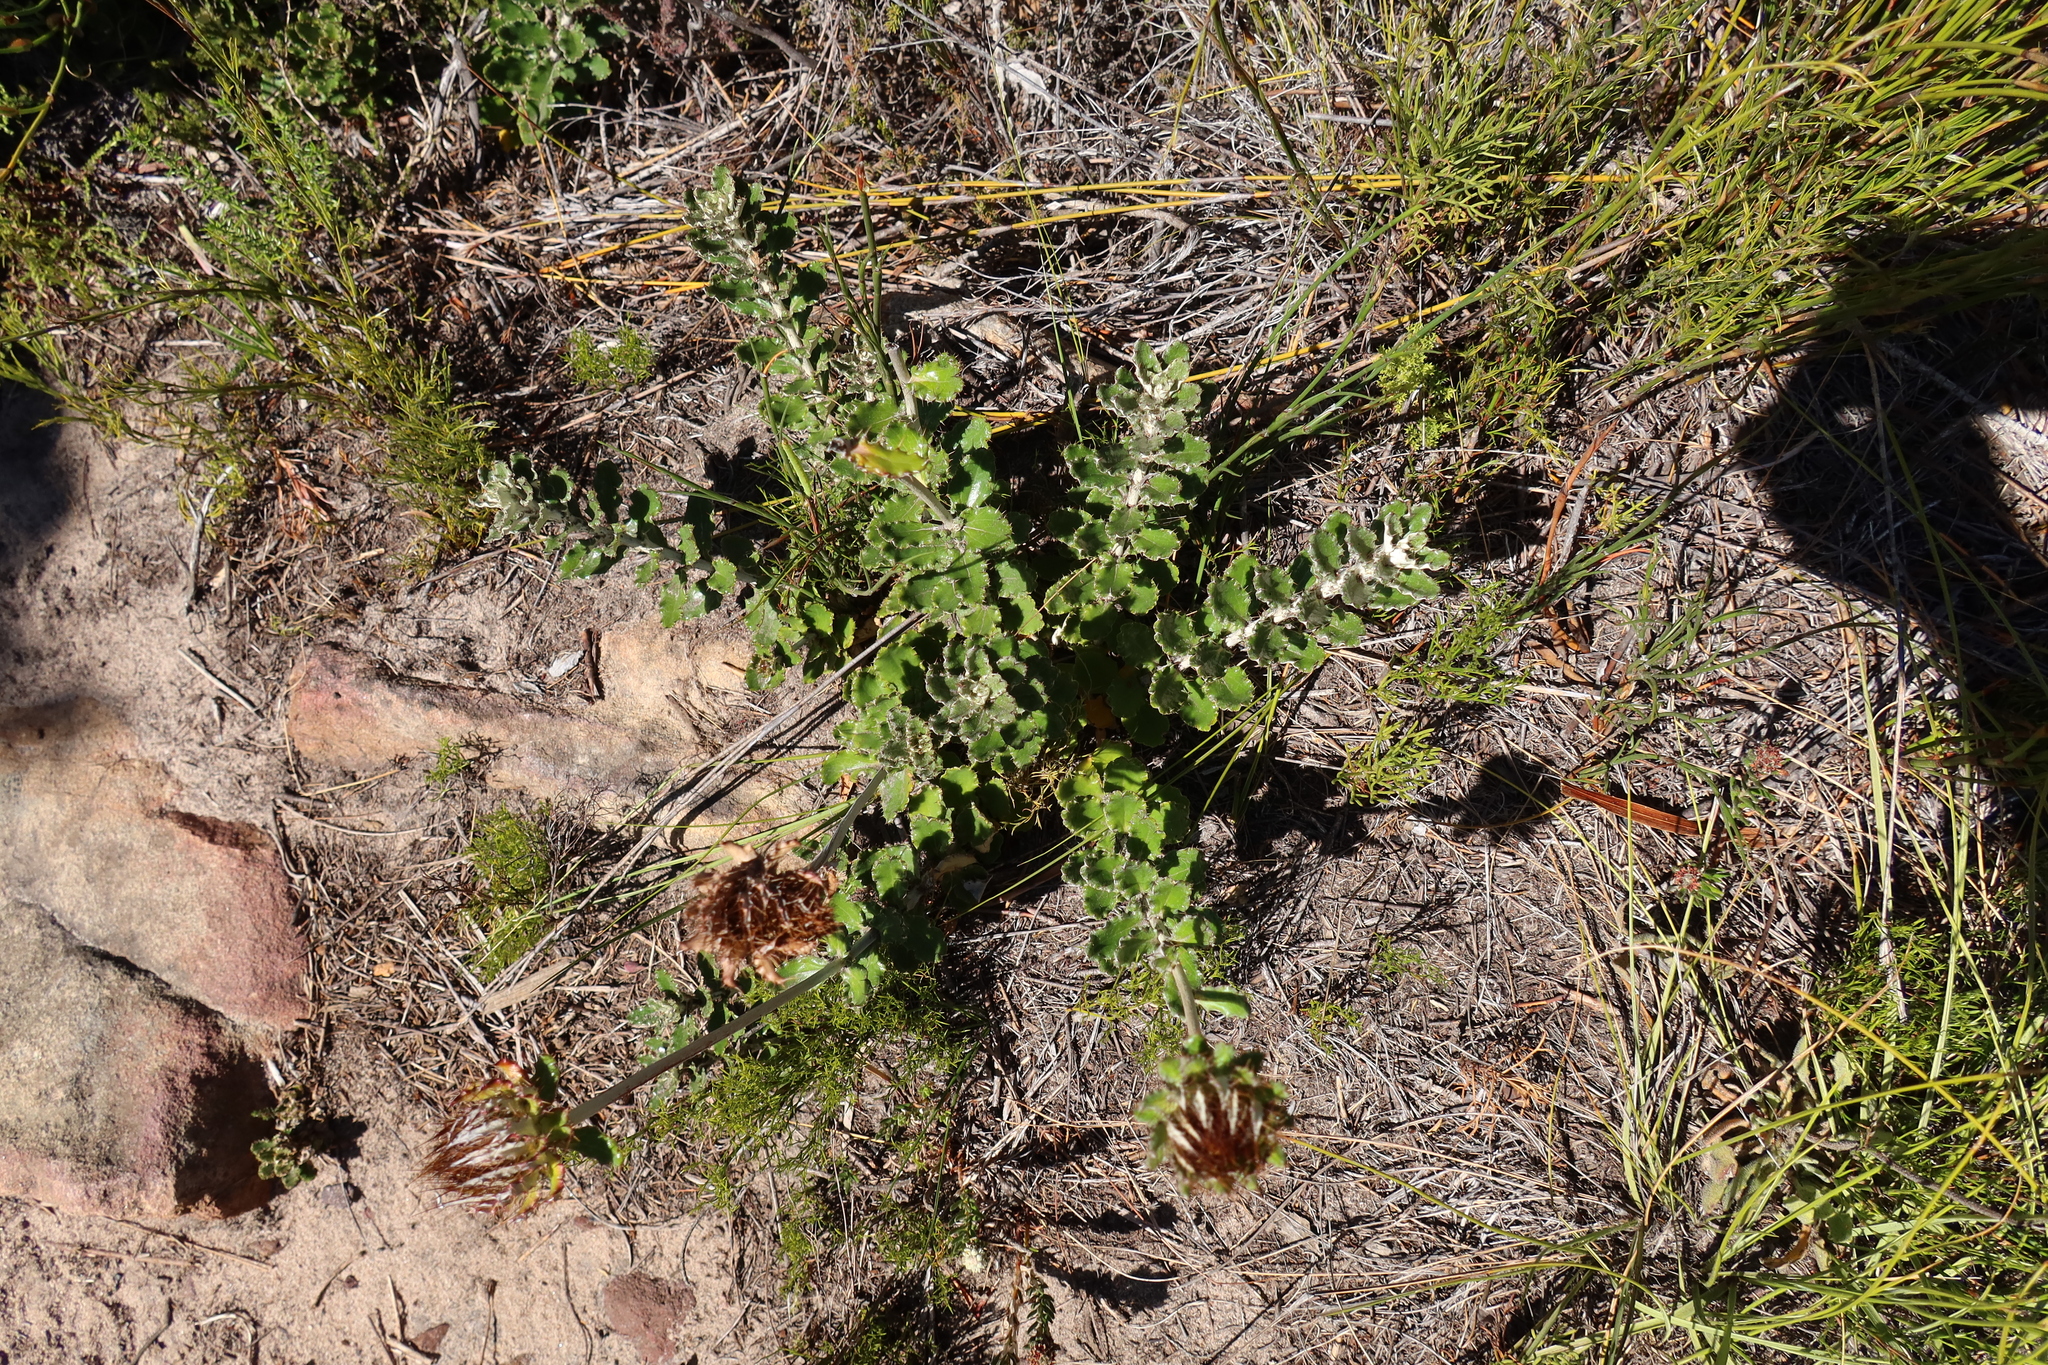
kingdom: Plantae
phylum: Tracheophyta
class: Magnoliopsida
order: Asterales
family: Asteraceae
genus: Berkheya
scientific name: Berkheya barbata
